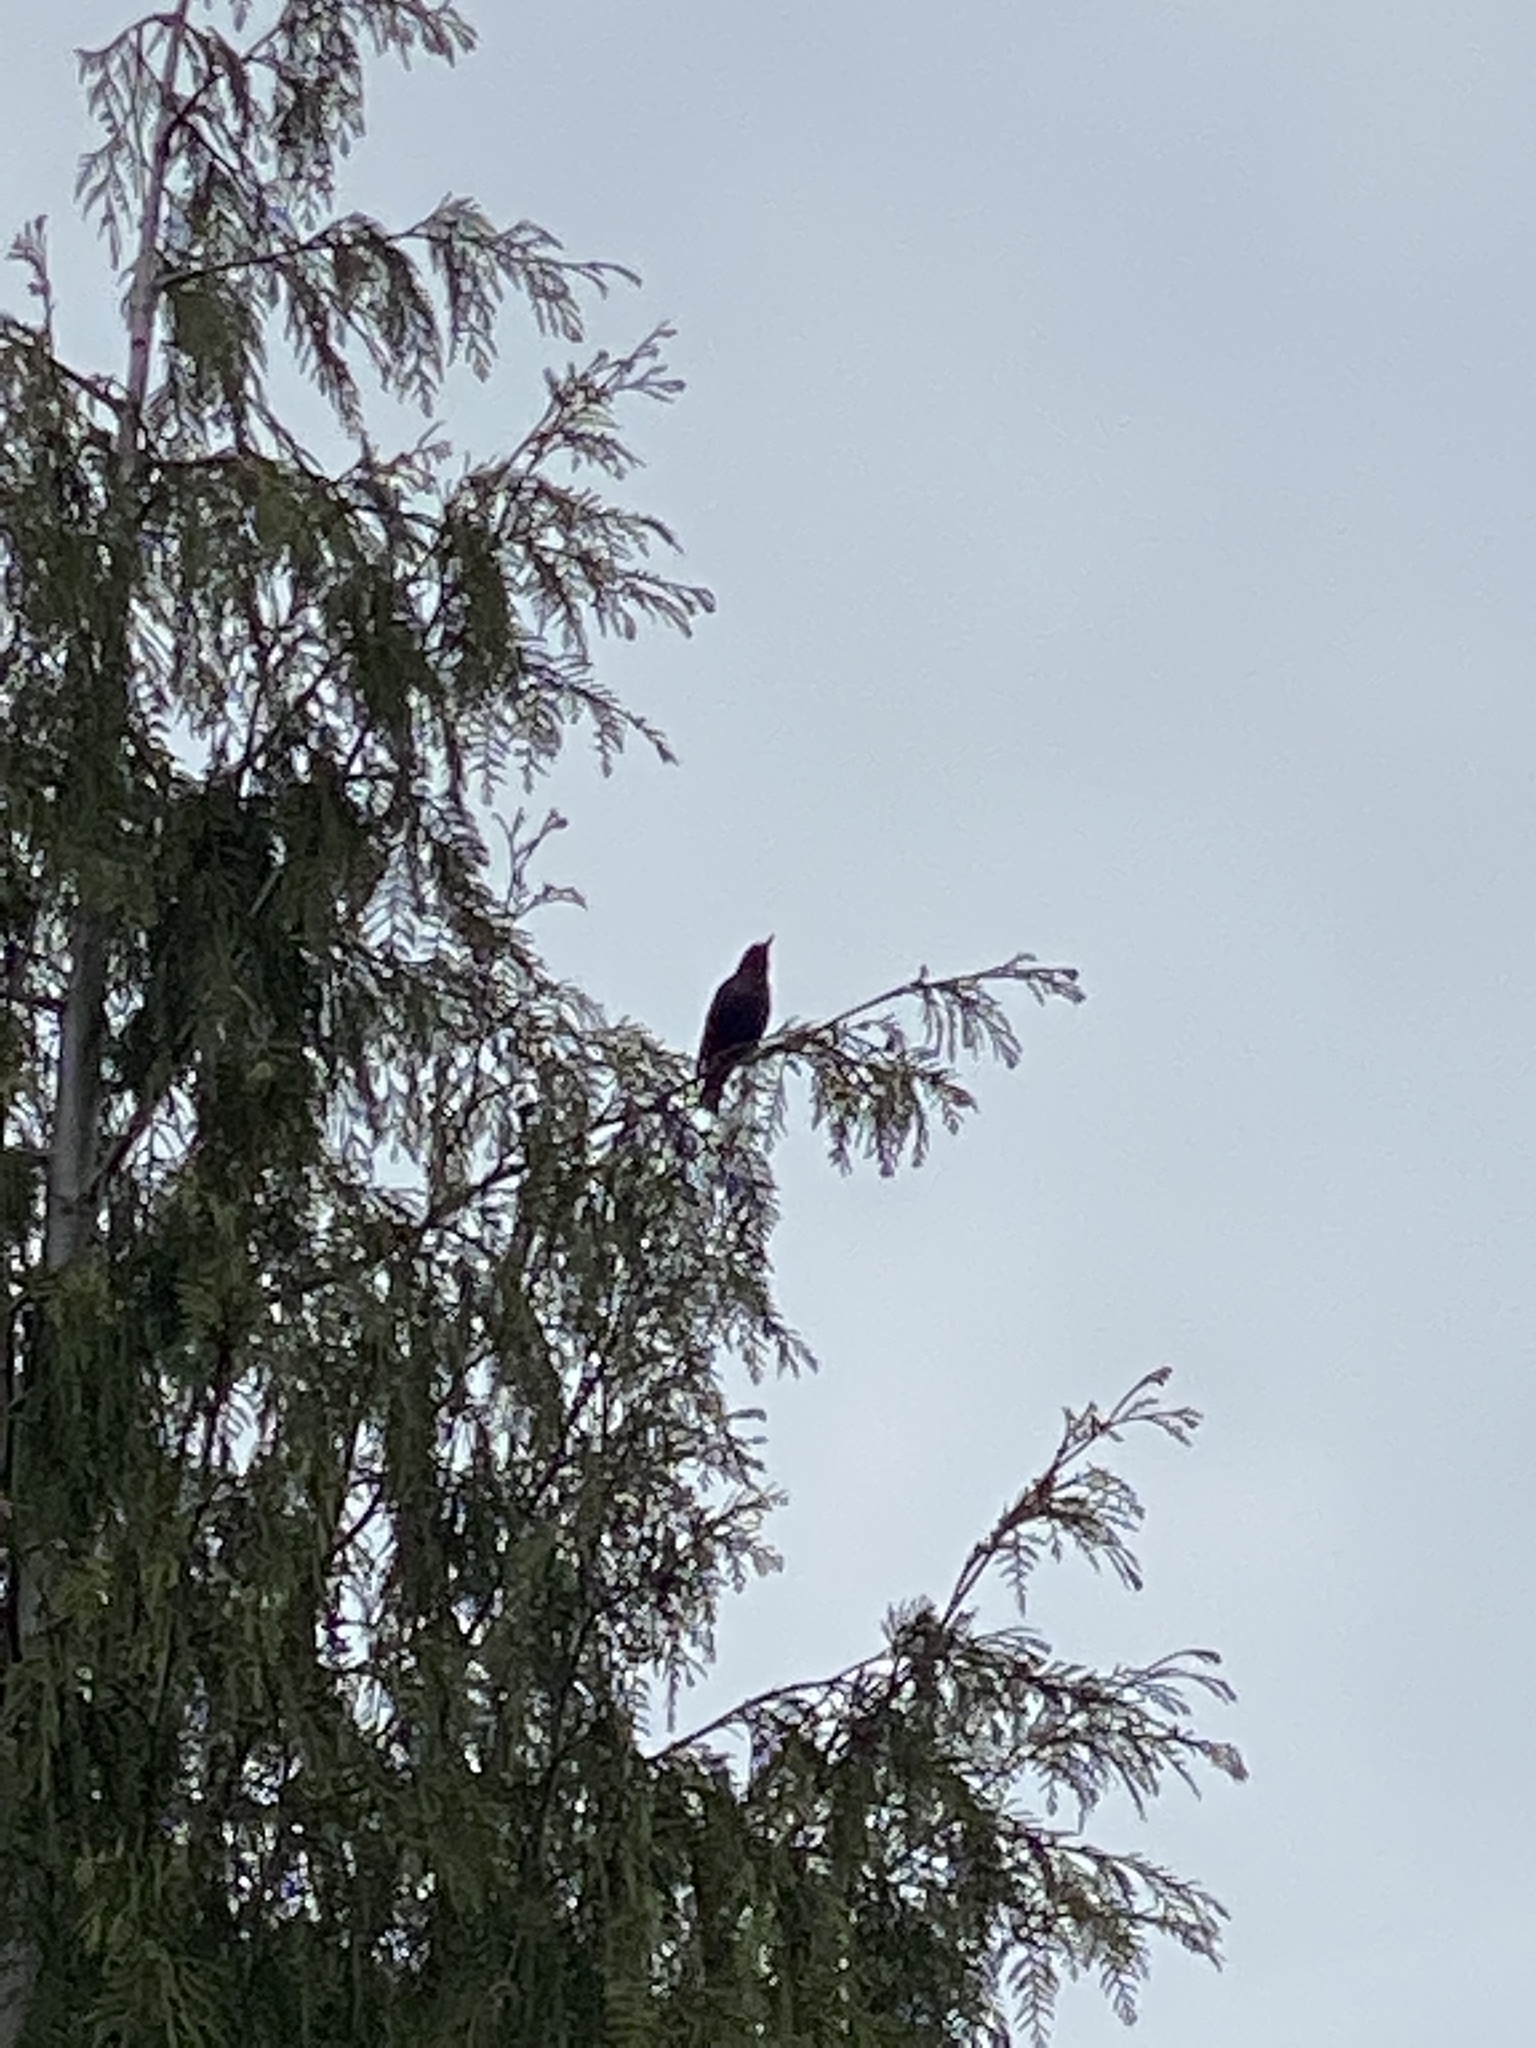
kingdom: Animalia
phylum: Chordata
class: Aves
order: Passeriformes
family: Sturnidae
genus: Sturnus
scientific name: Sturnus vulgaris
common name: Common starling
